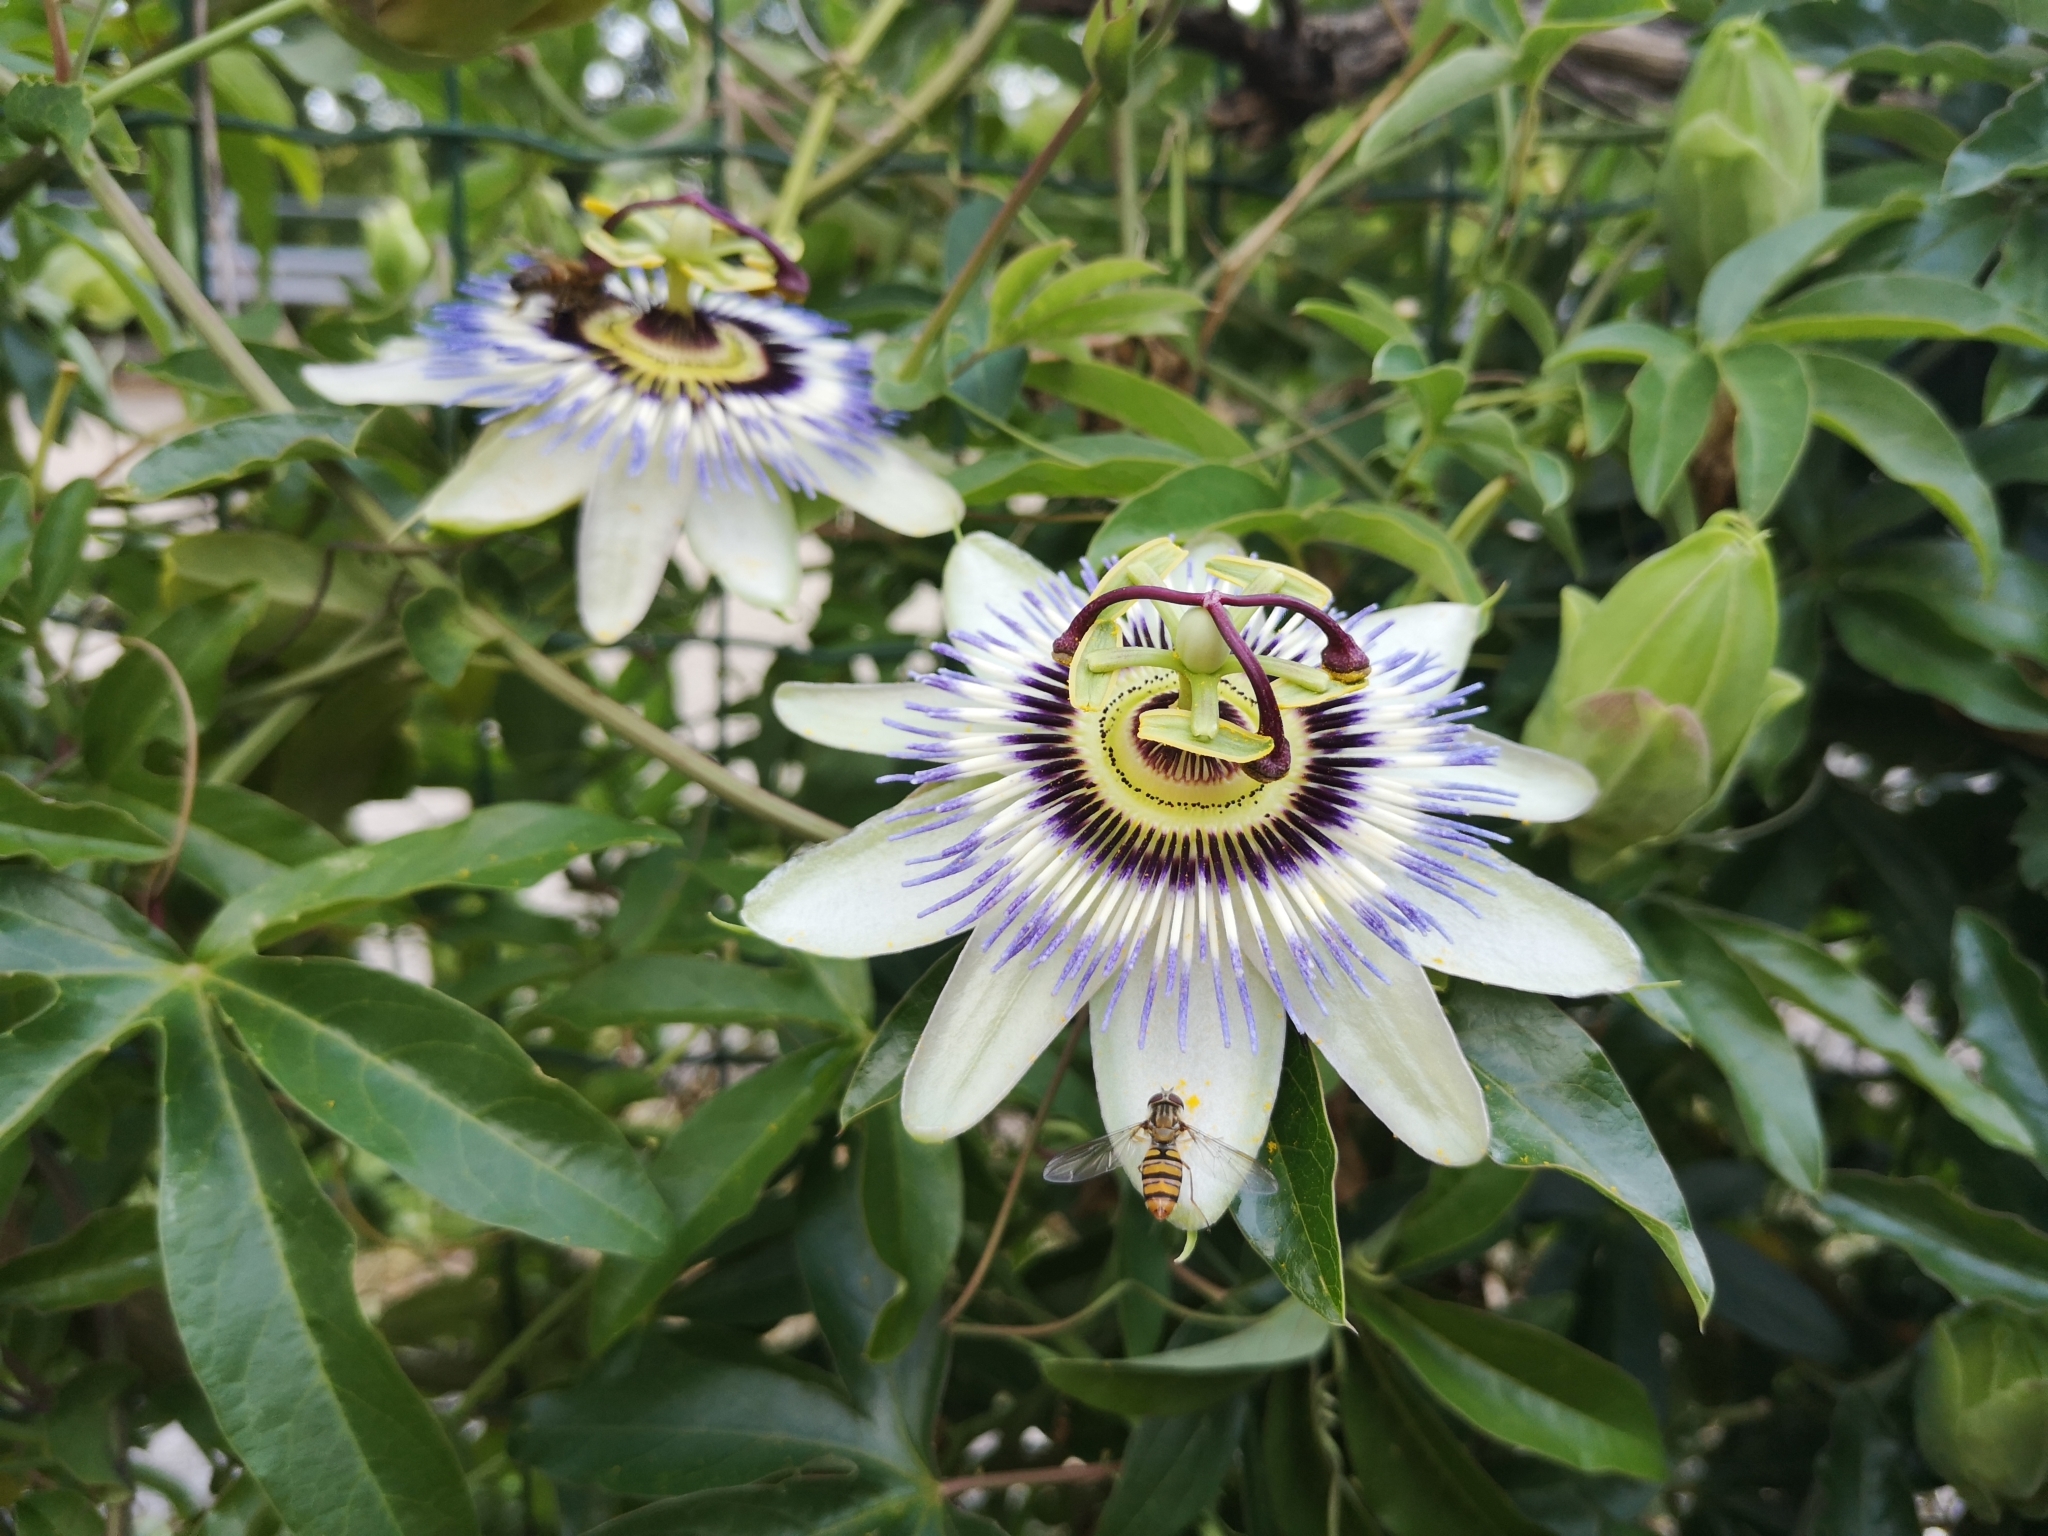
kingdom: Animalia
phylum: Arthropoda
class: Insecta
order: Diptera
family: Syrphidae
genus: Episyrphus
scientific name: Episyrphus balteatus
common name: Marmalade hoverfly
